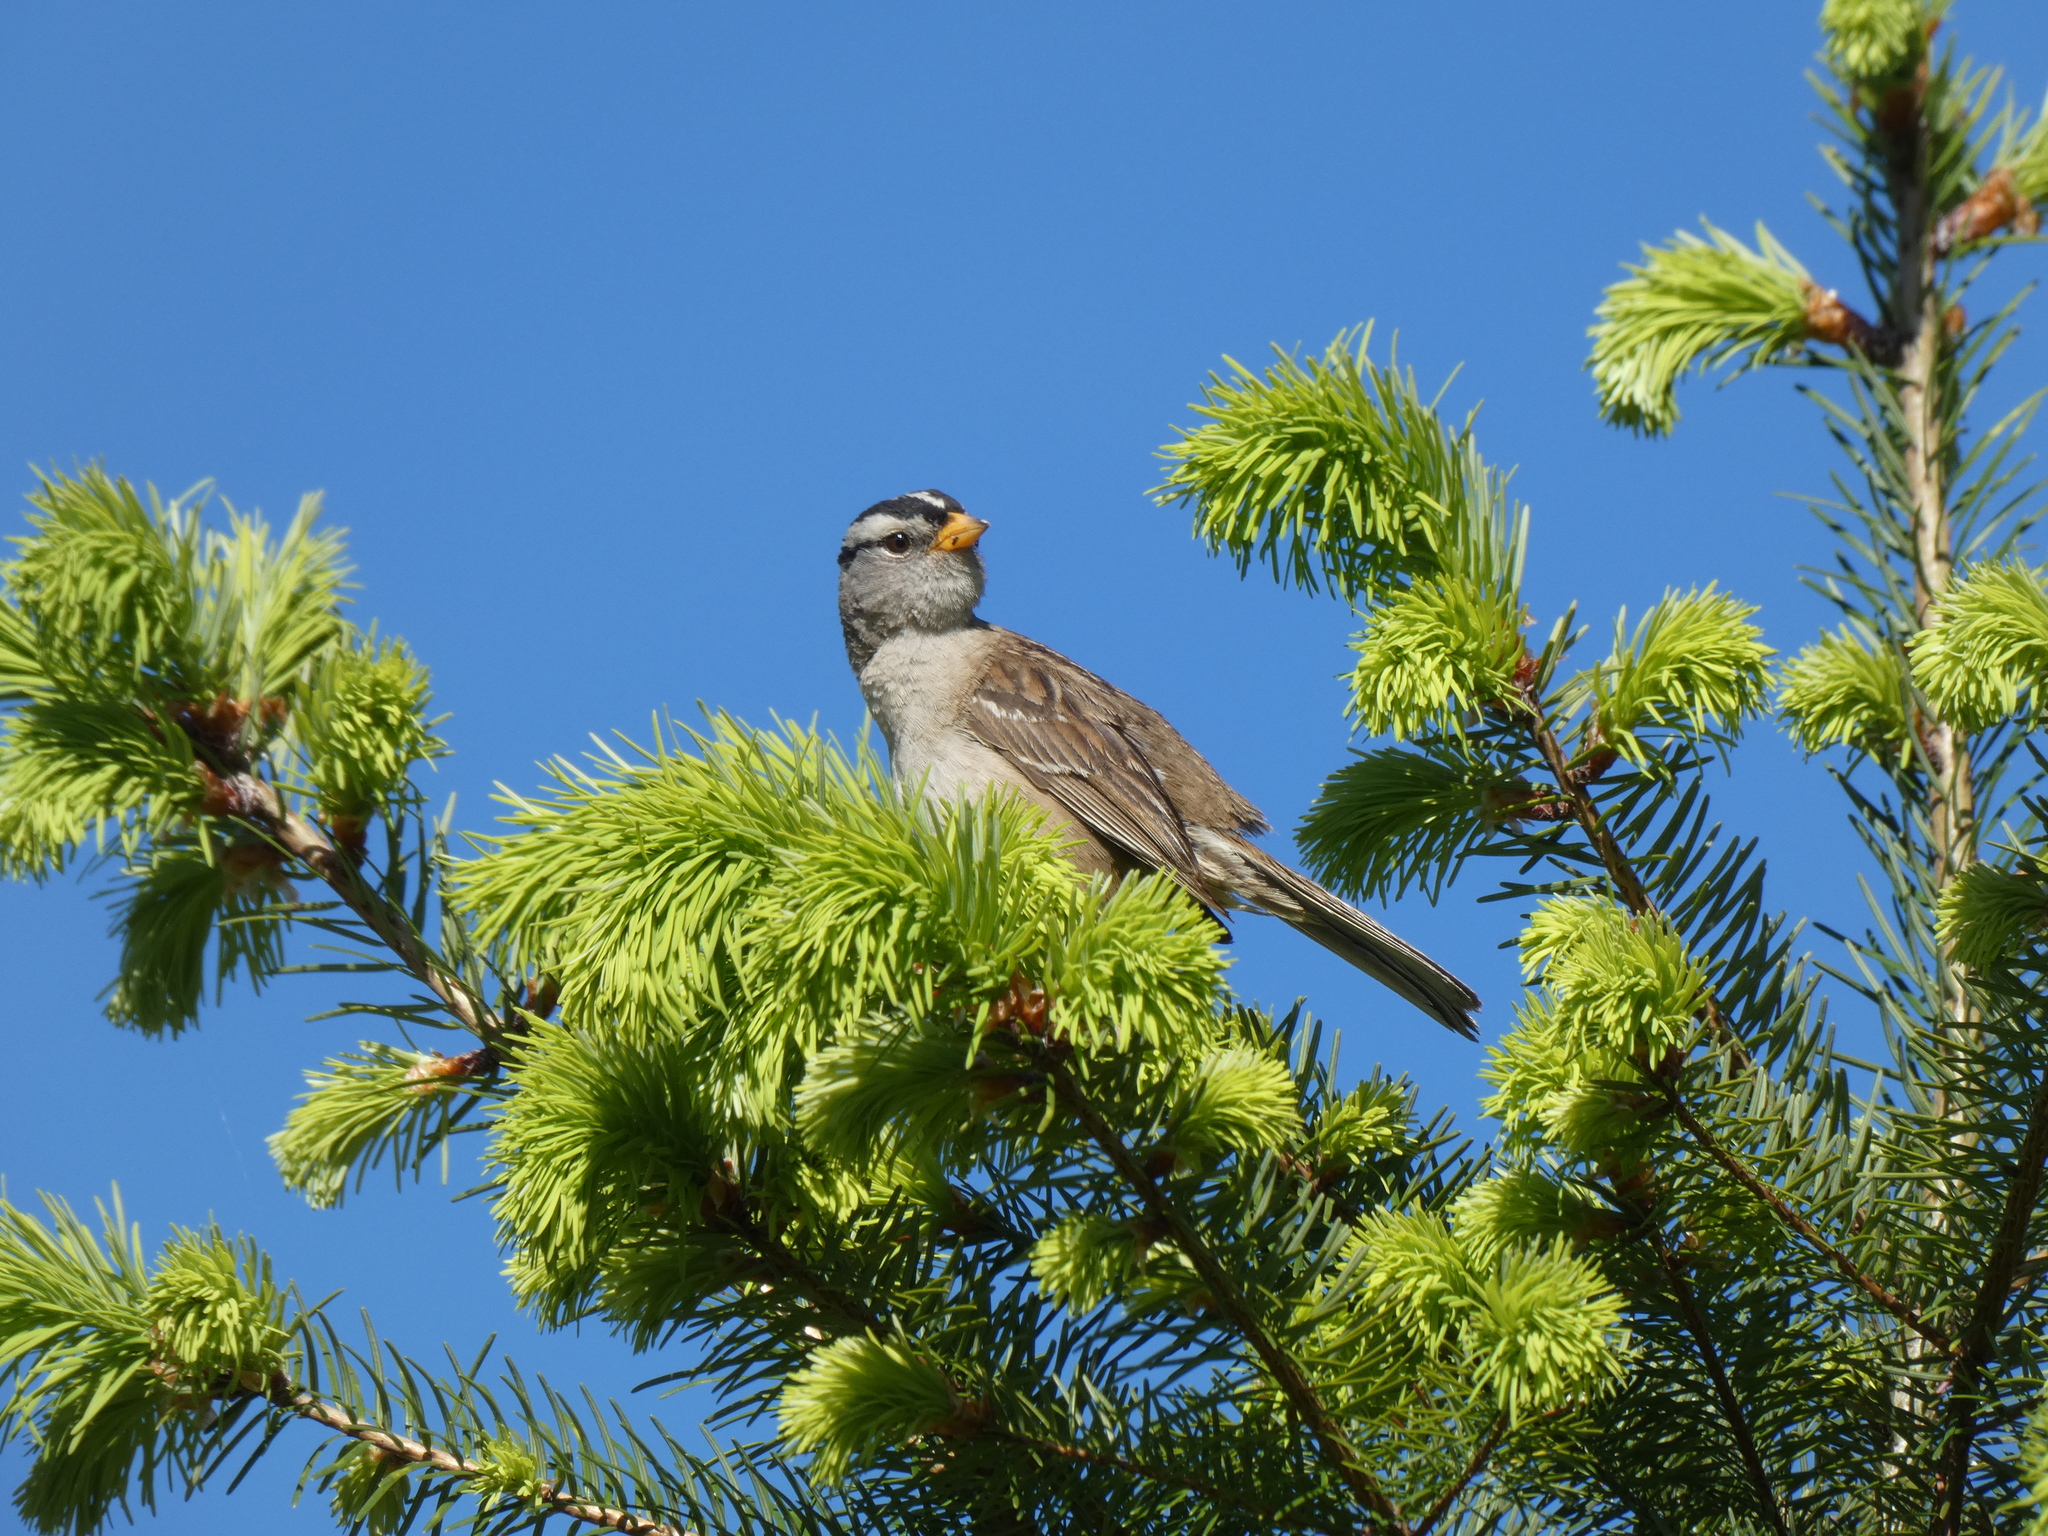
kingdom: Animalia
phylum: Chordata
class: Aves
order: Passeriformes
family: Passerellidae
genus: Zonotrichia
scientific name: Zonotrichia leucophrys
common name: White-crowned sparrow
